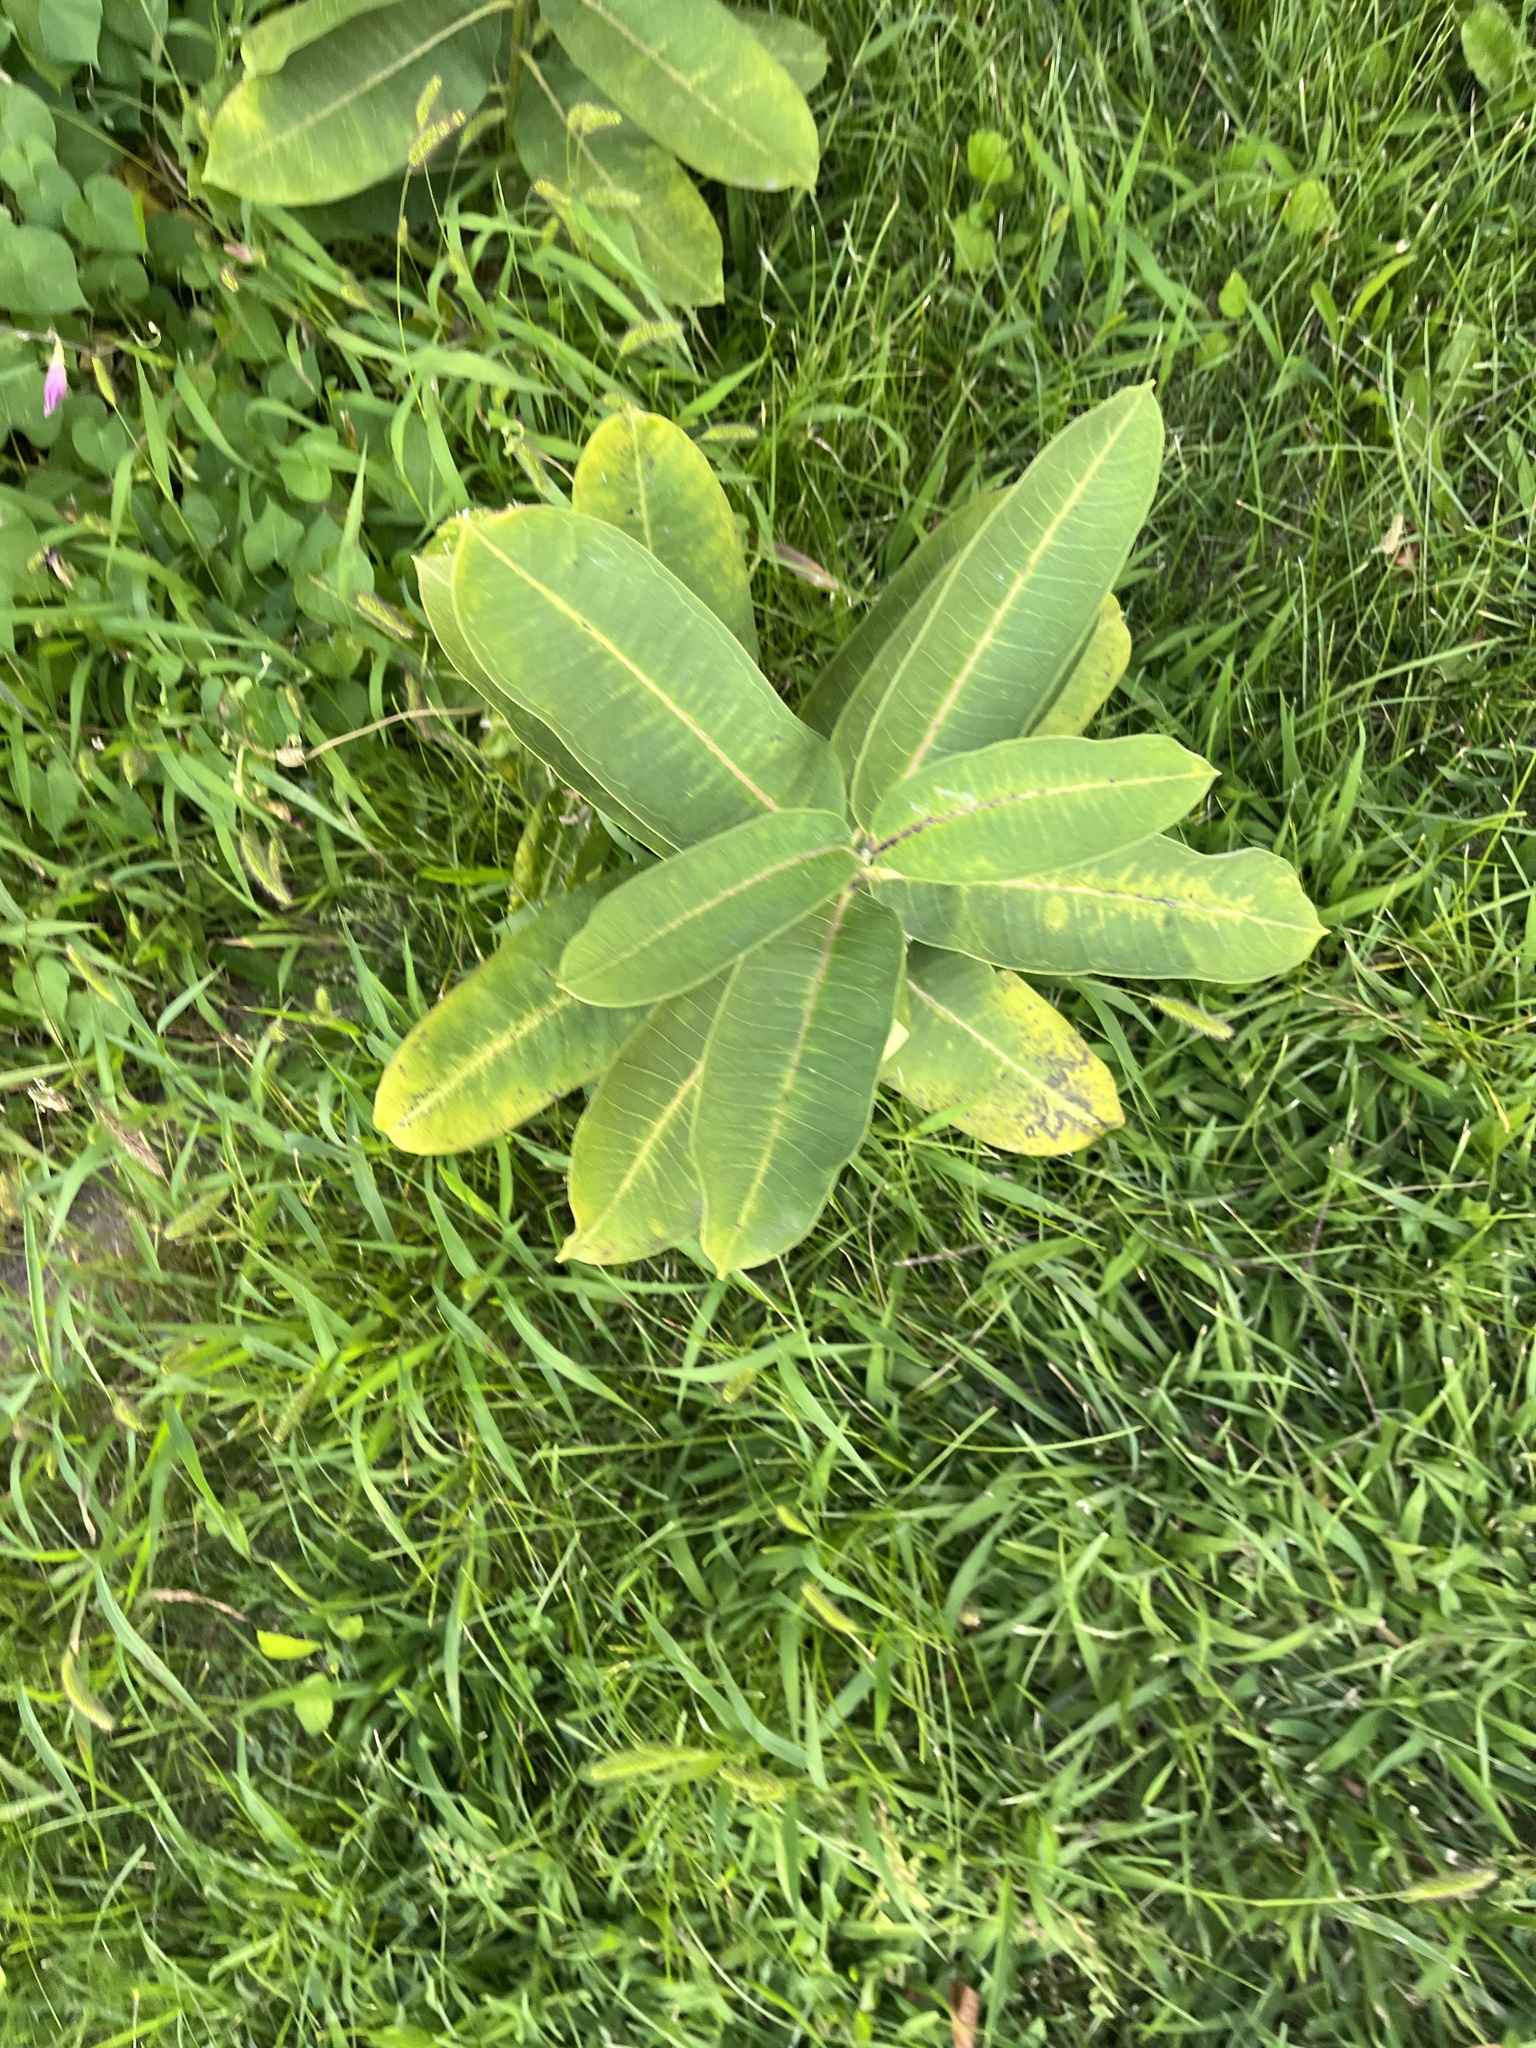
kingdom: Plantae
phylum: Tracheophyta
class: Magnoliopsida
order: Gentianales
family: Apocynaceae
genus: Asclepias
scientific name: Asclepias syriaca
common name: Common milkweed
